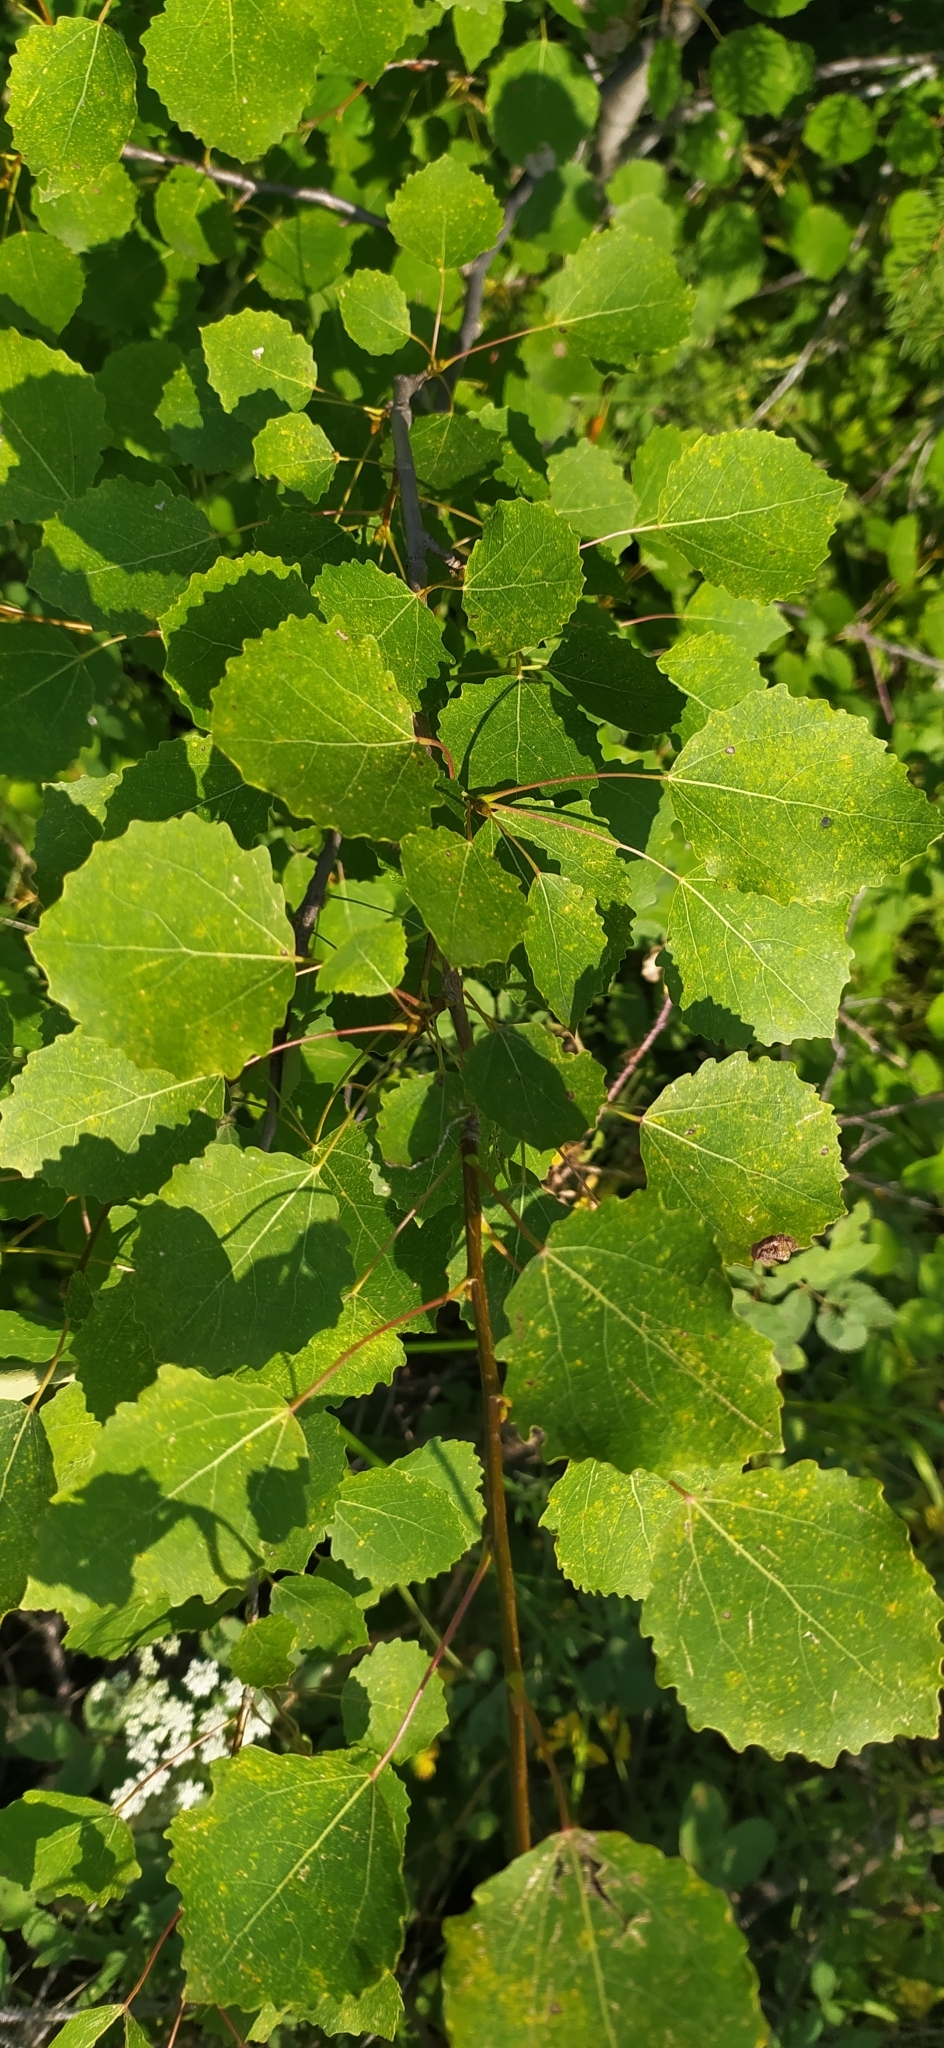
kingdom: Plantae
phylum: Tracheophyta
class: Magnoliopsida
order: Malpighiales
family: Salicaceae
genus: Populus
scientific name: Populus tremula
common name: European aspen
